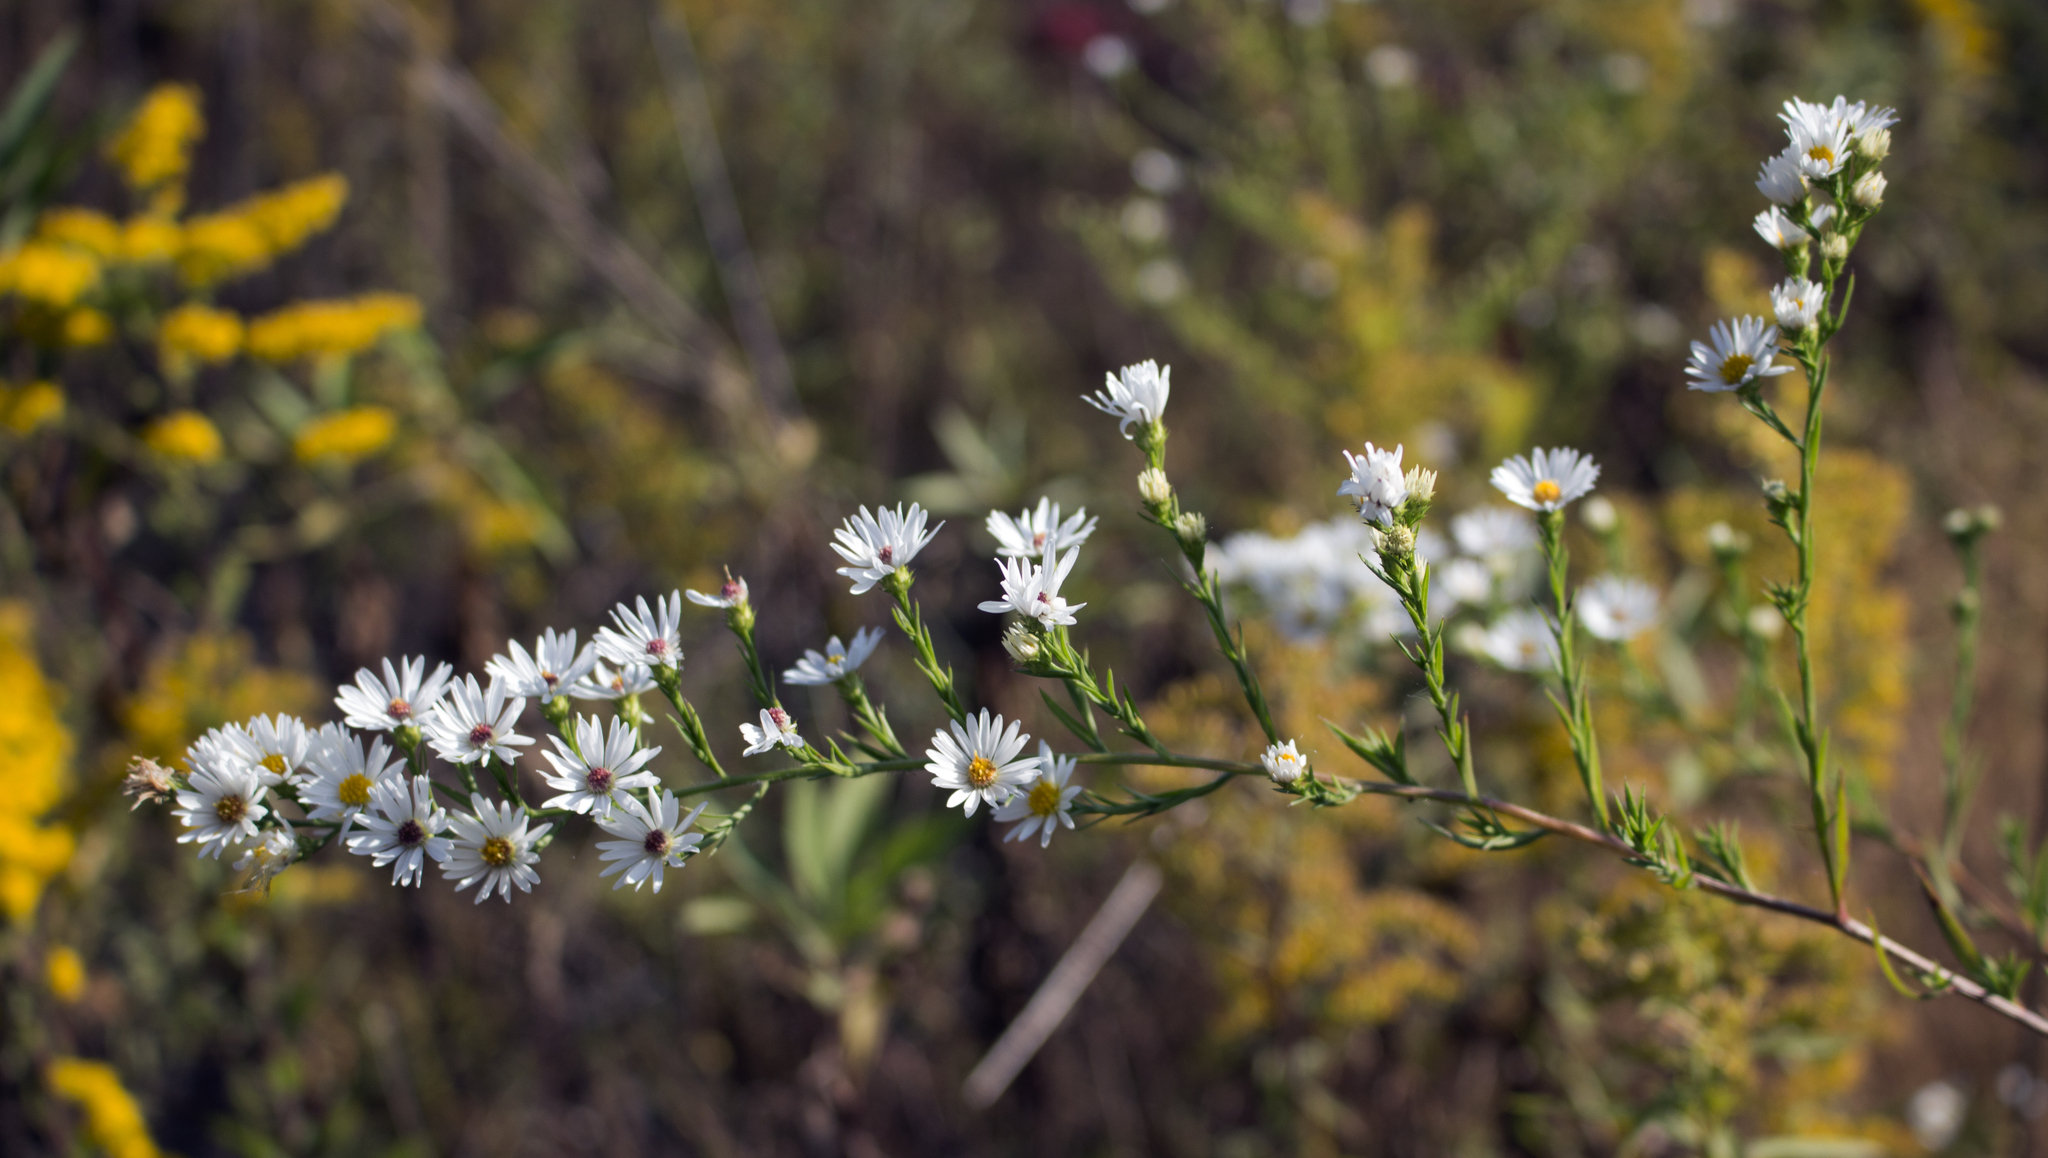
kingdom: Plantae
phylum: Tracheophyta
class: Magnoliopsida
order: Asterales
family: Asteraceae
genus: Symphyotrichum
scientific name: Symphyotrichum pilosum
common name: Awl aster
